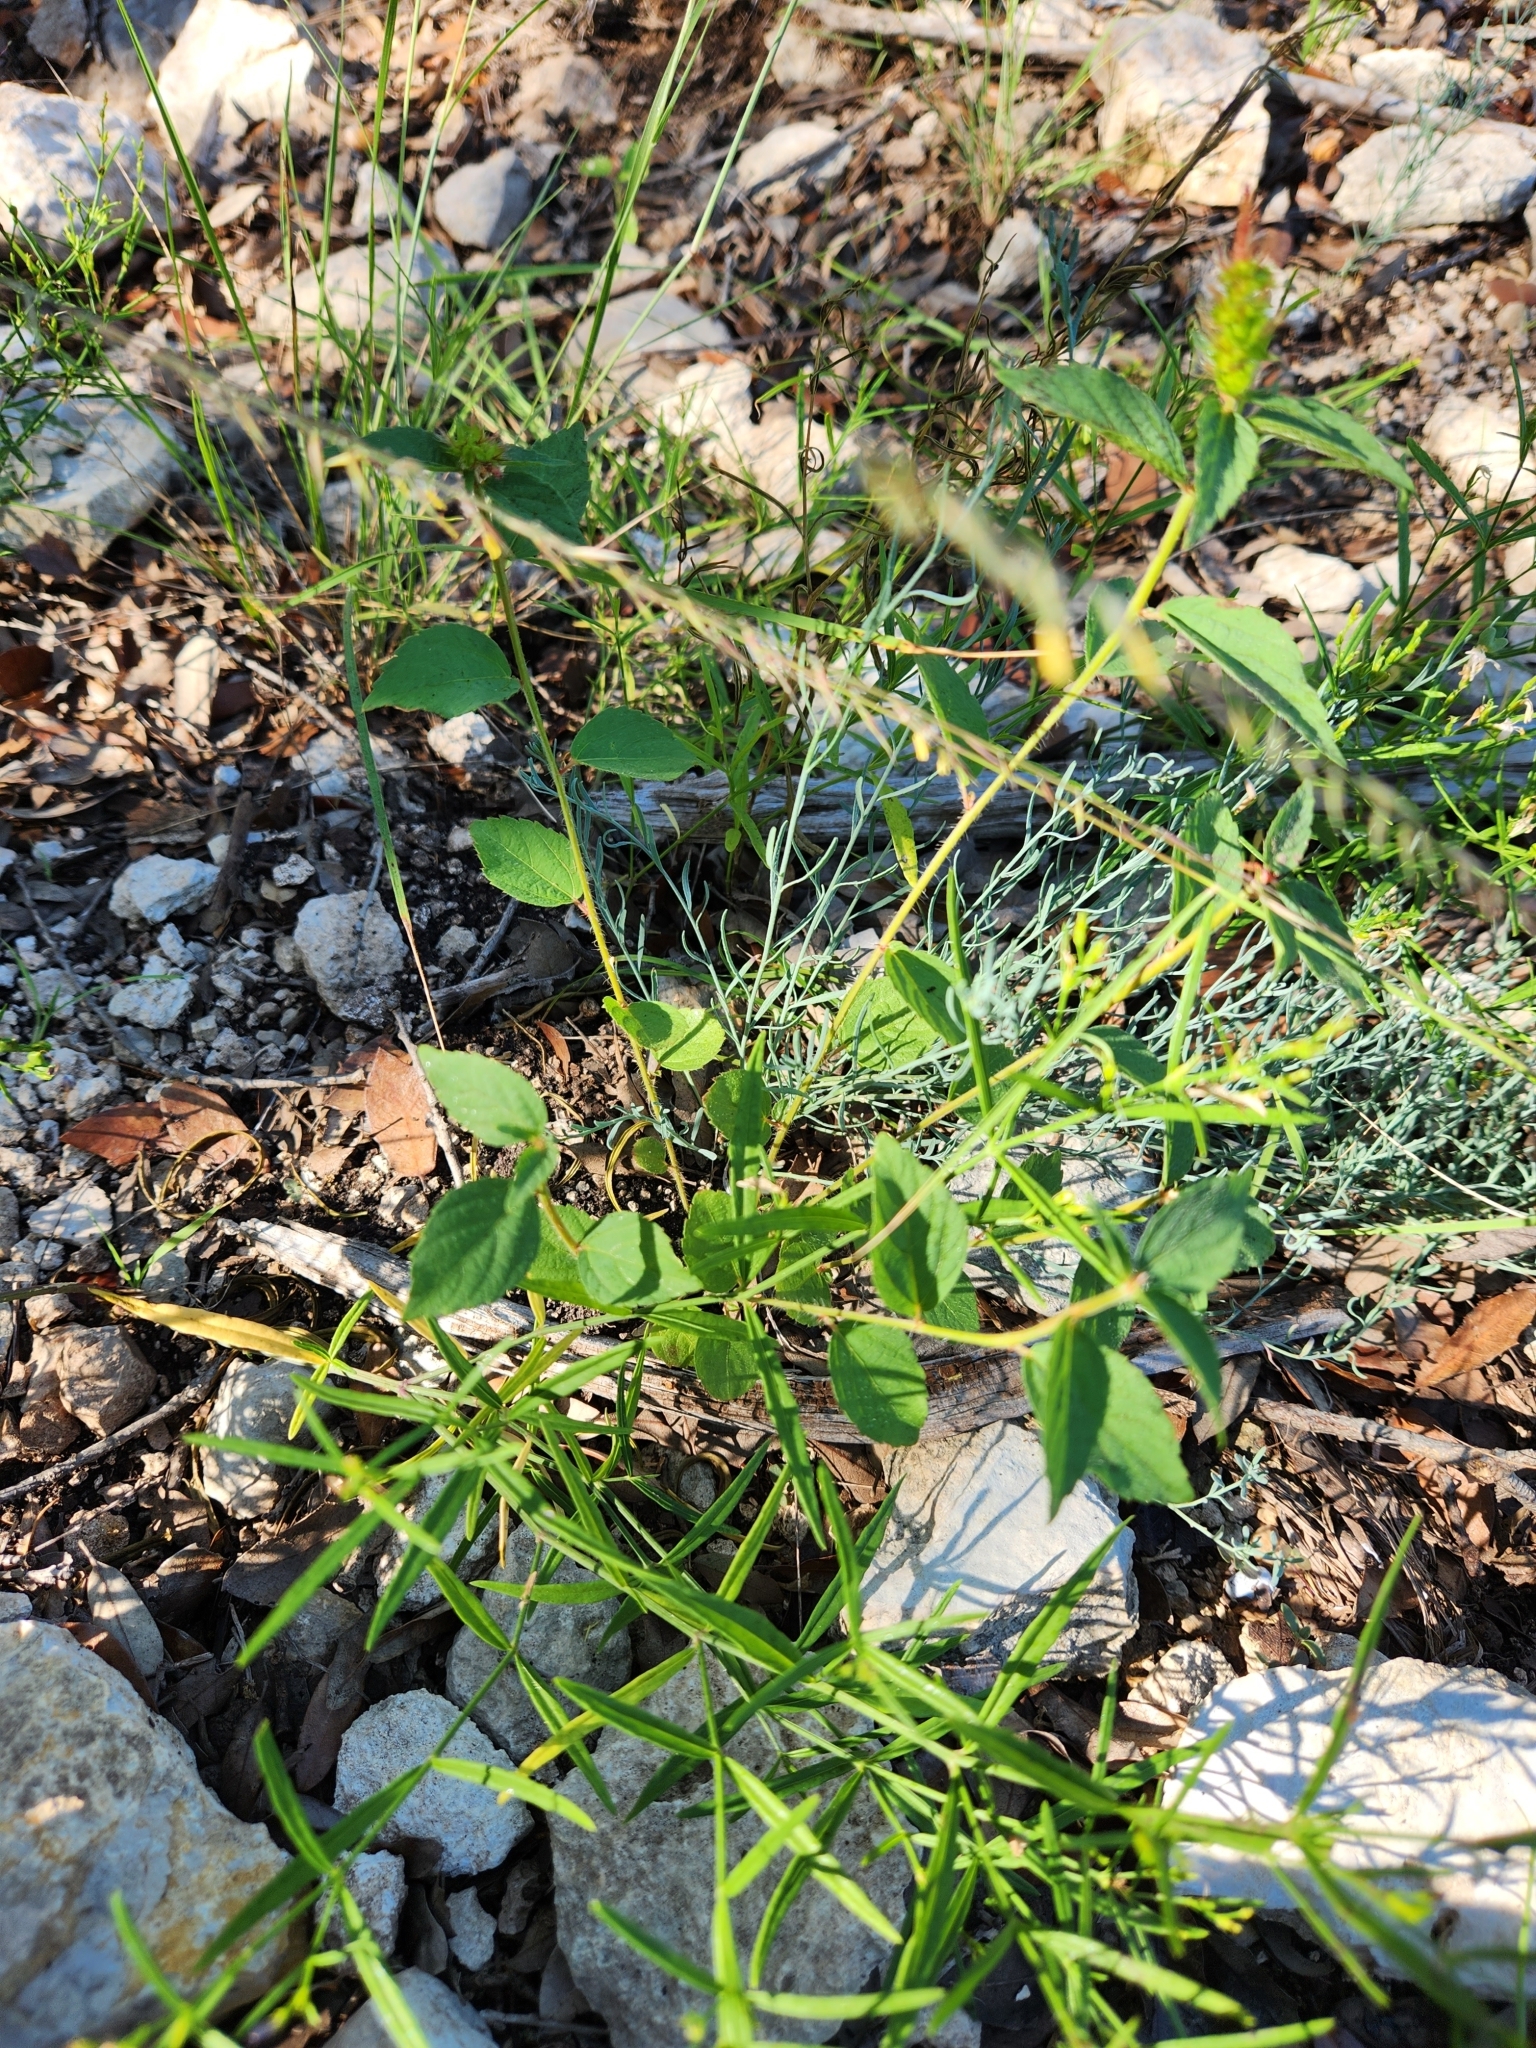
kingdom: Plantae
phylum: Tracheophyta
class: Magnoliopsida
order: Malpighiales
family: Euphorbiaceae
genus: Acalypha
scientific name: Acalypha phleoides
